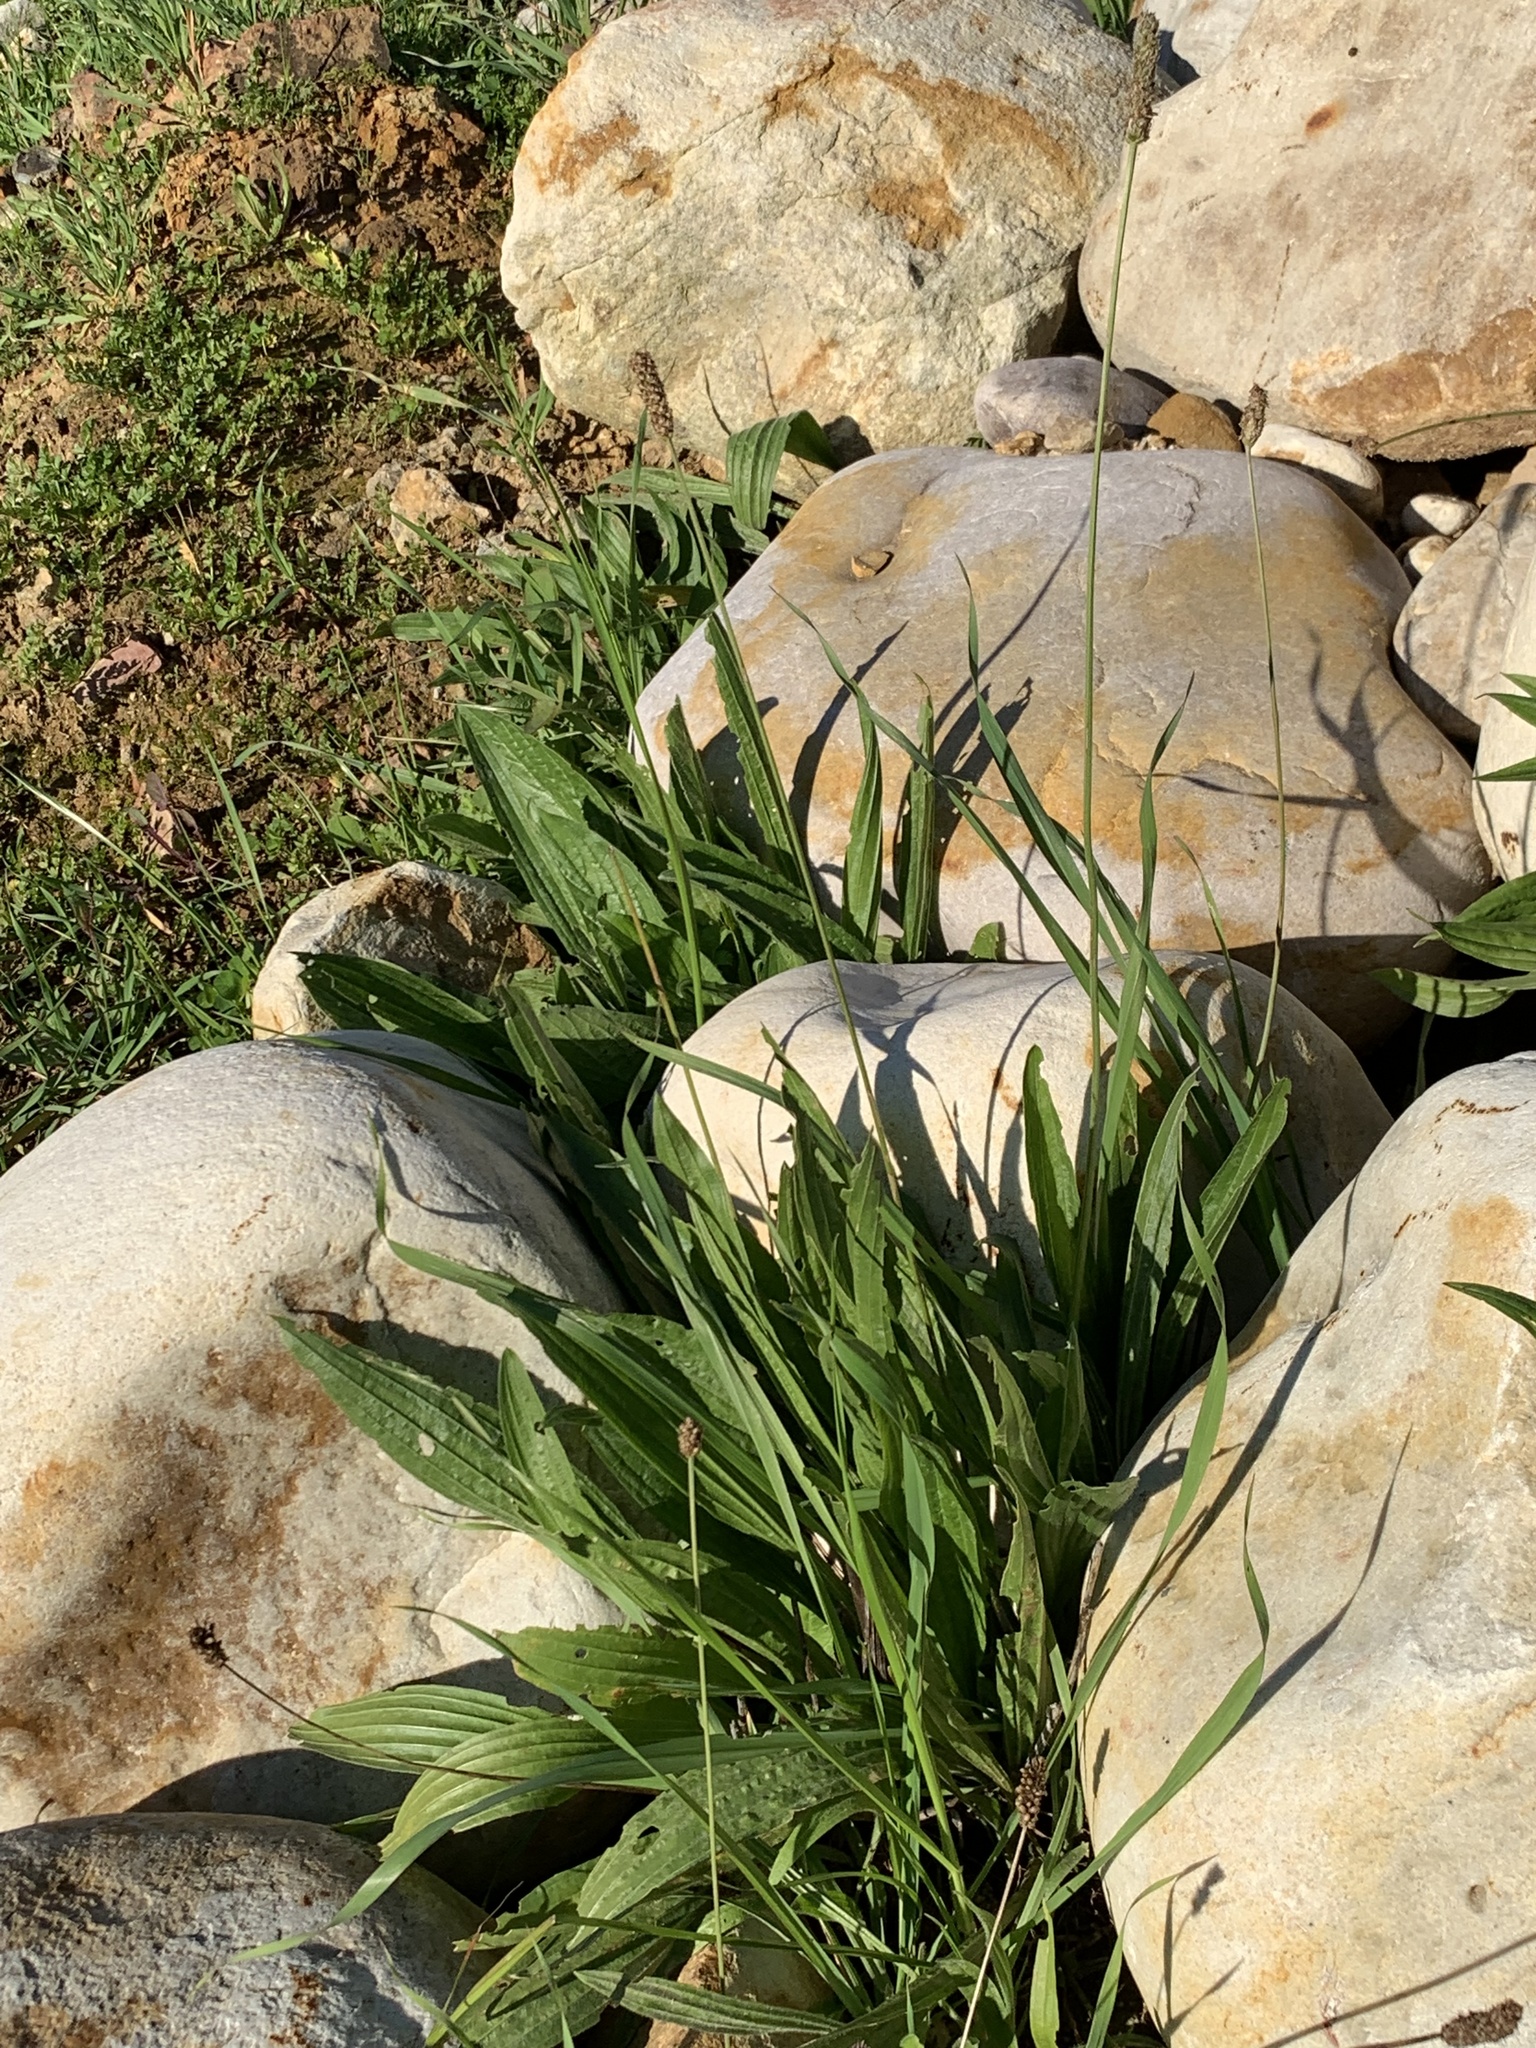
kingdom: Plantae
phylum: Tracheophyta
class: Magnoliopsida
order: Lamiales
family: Plantaginaceae
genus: Plantago
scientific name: Plantago lanceolata
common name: Ribwort plantain
